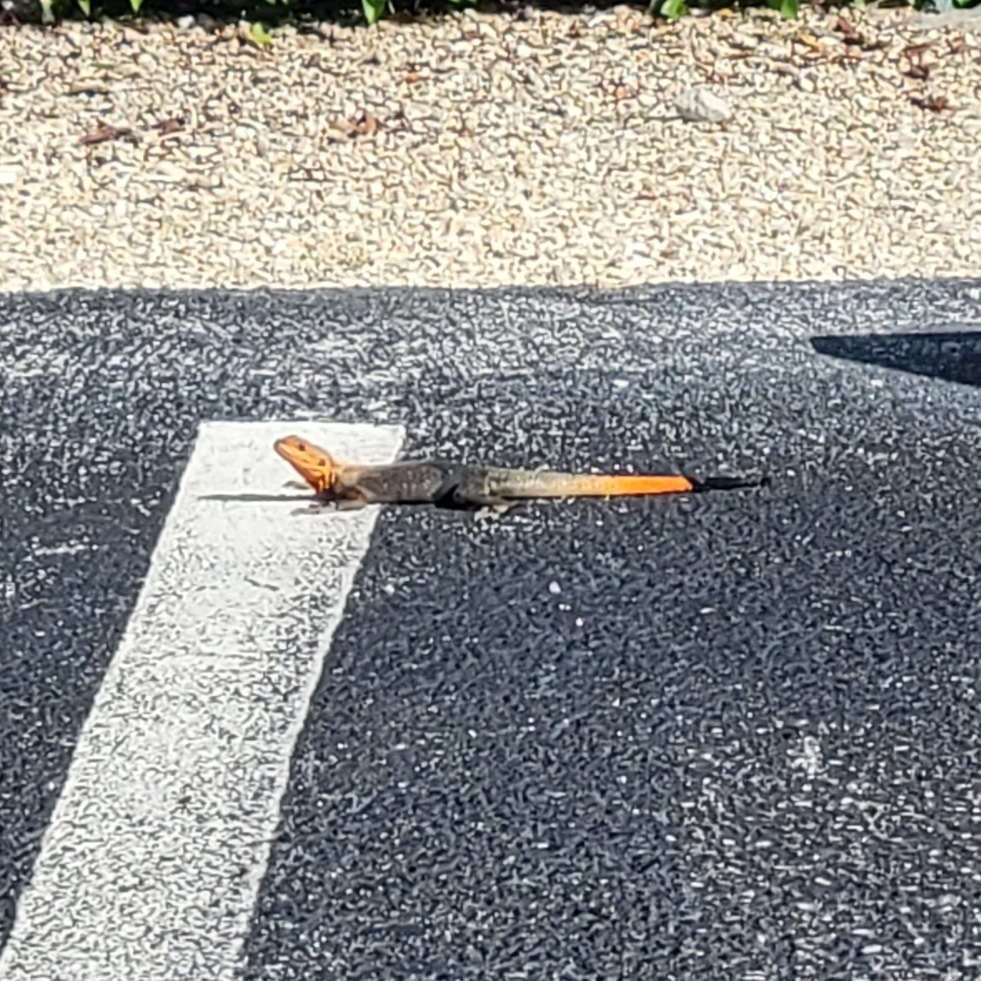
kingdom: Animalia
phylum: Chordata
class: Squamata
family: Agamidae
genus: Agama
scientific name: Agama picticauda
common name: Red-headed agama
